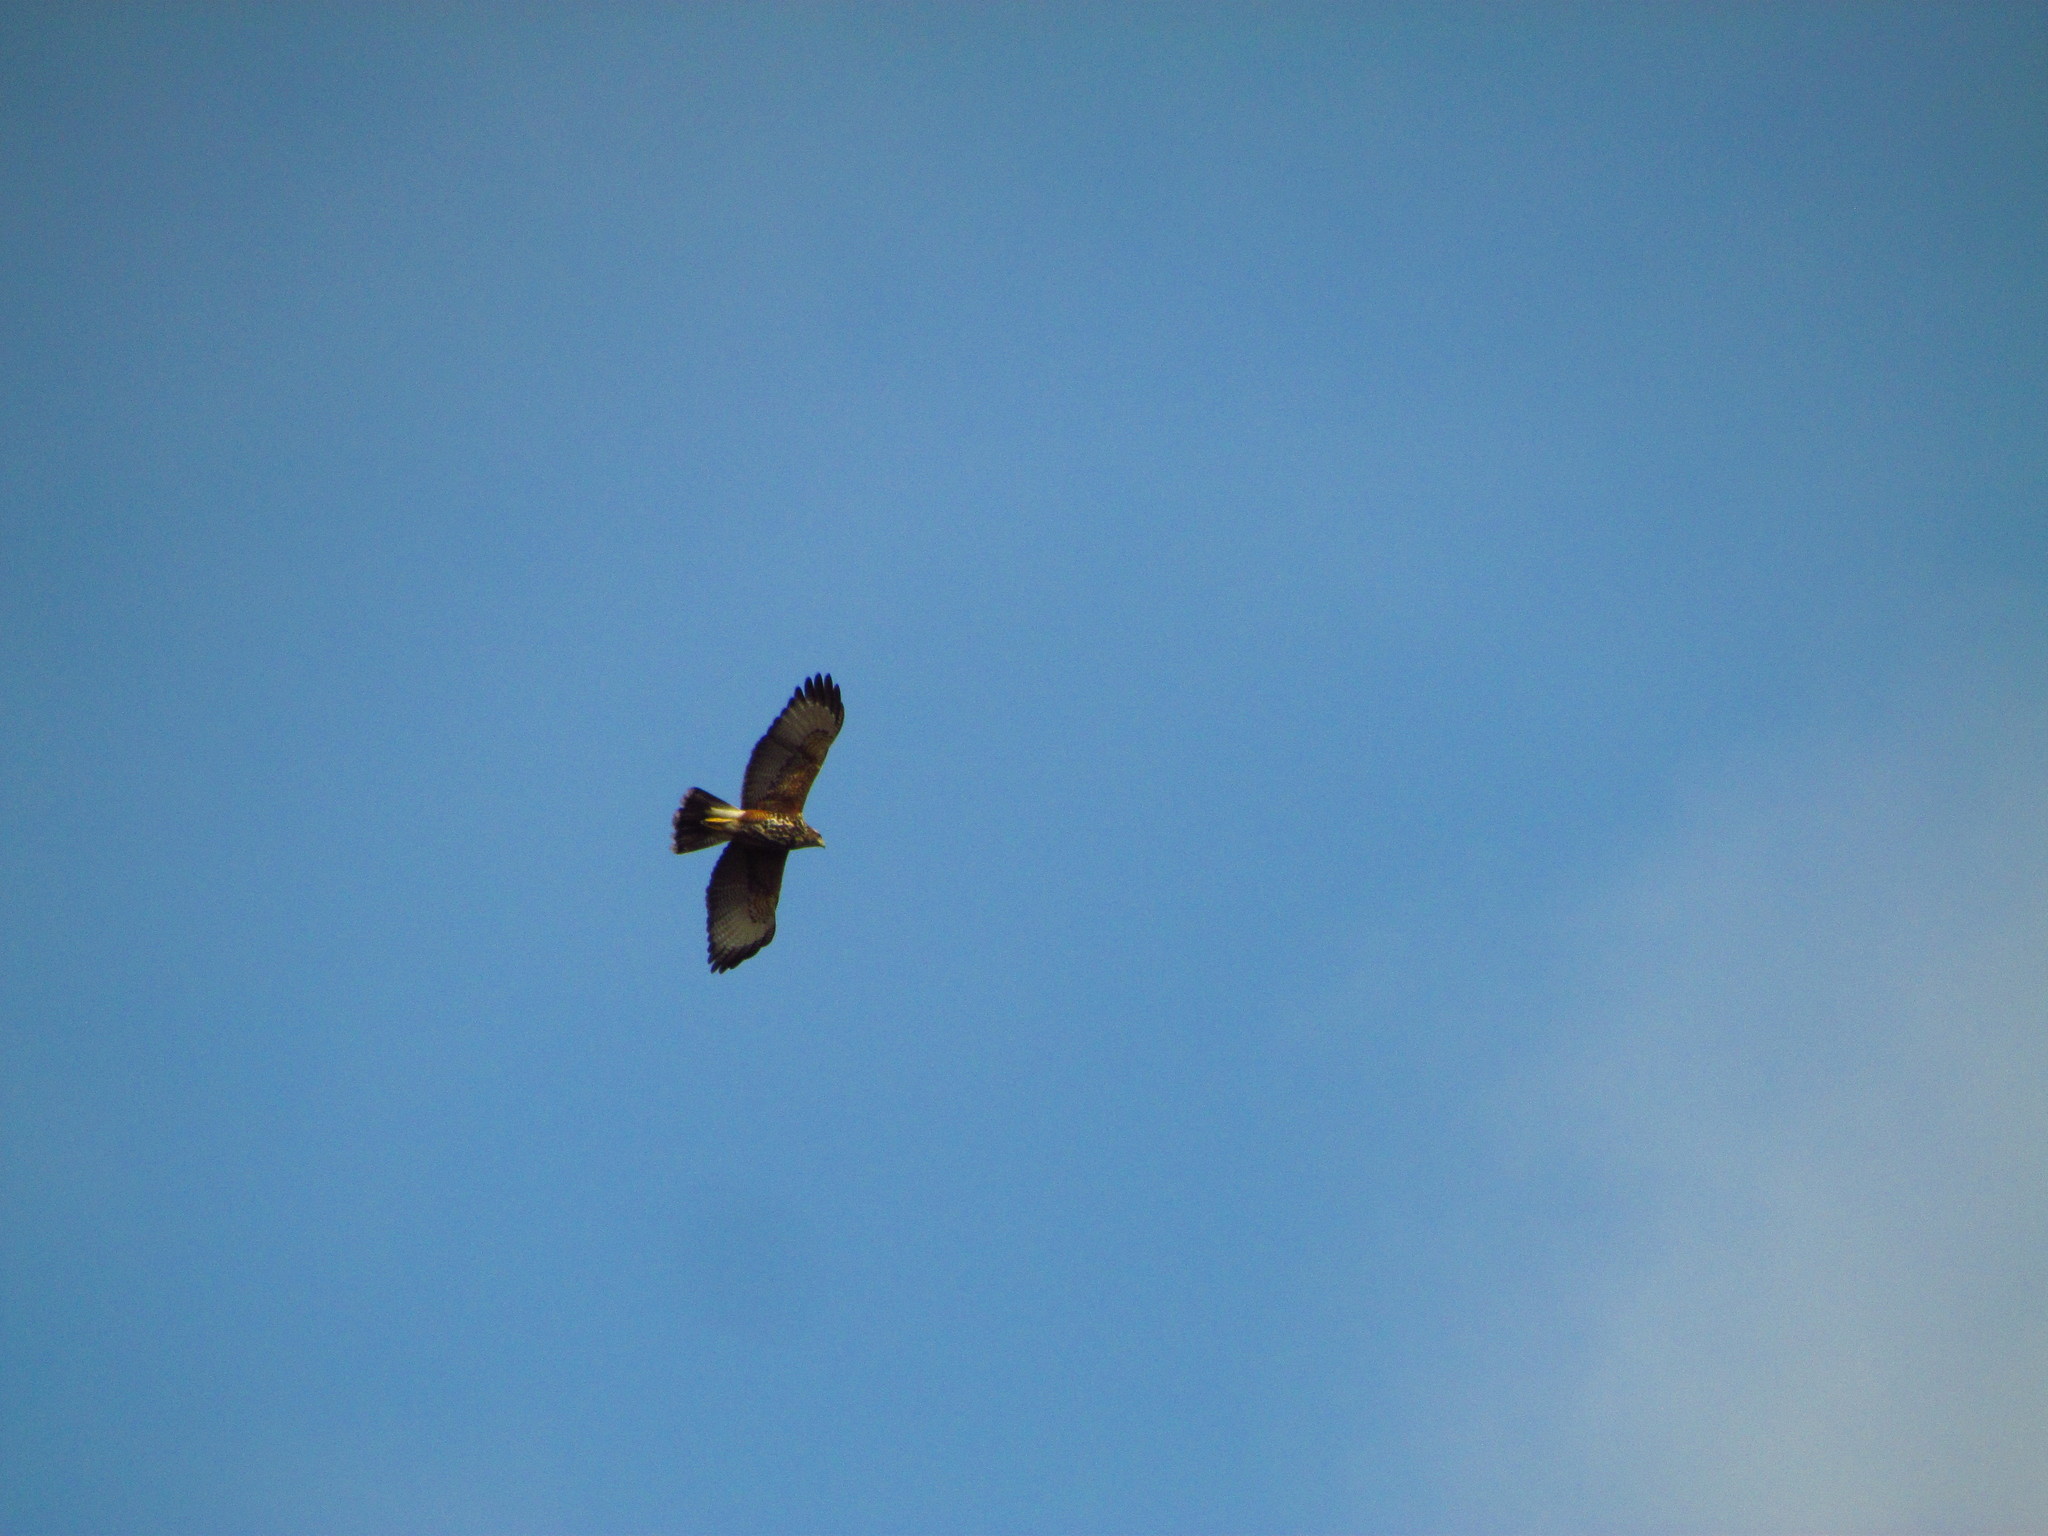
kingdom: Animalia
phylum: Chordata
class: Aves
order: Accipitriformes
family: Accipitridae
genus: Parabuteo
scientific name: Parabuteo unicinctus
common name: Harris's hawk
